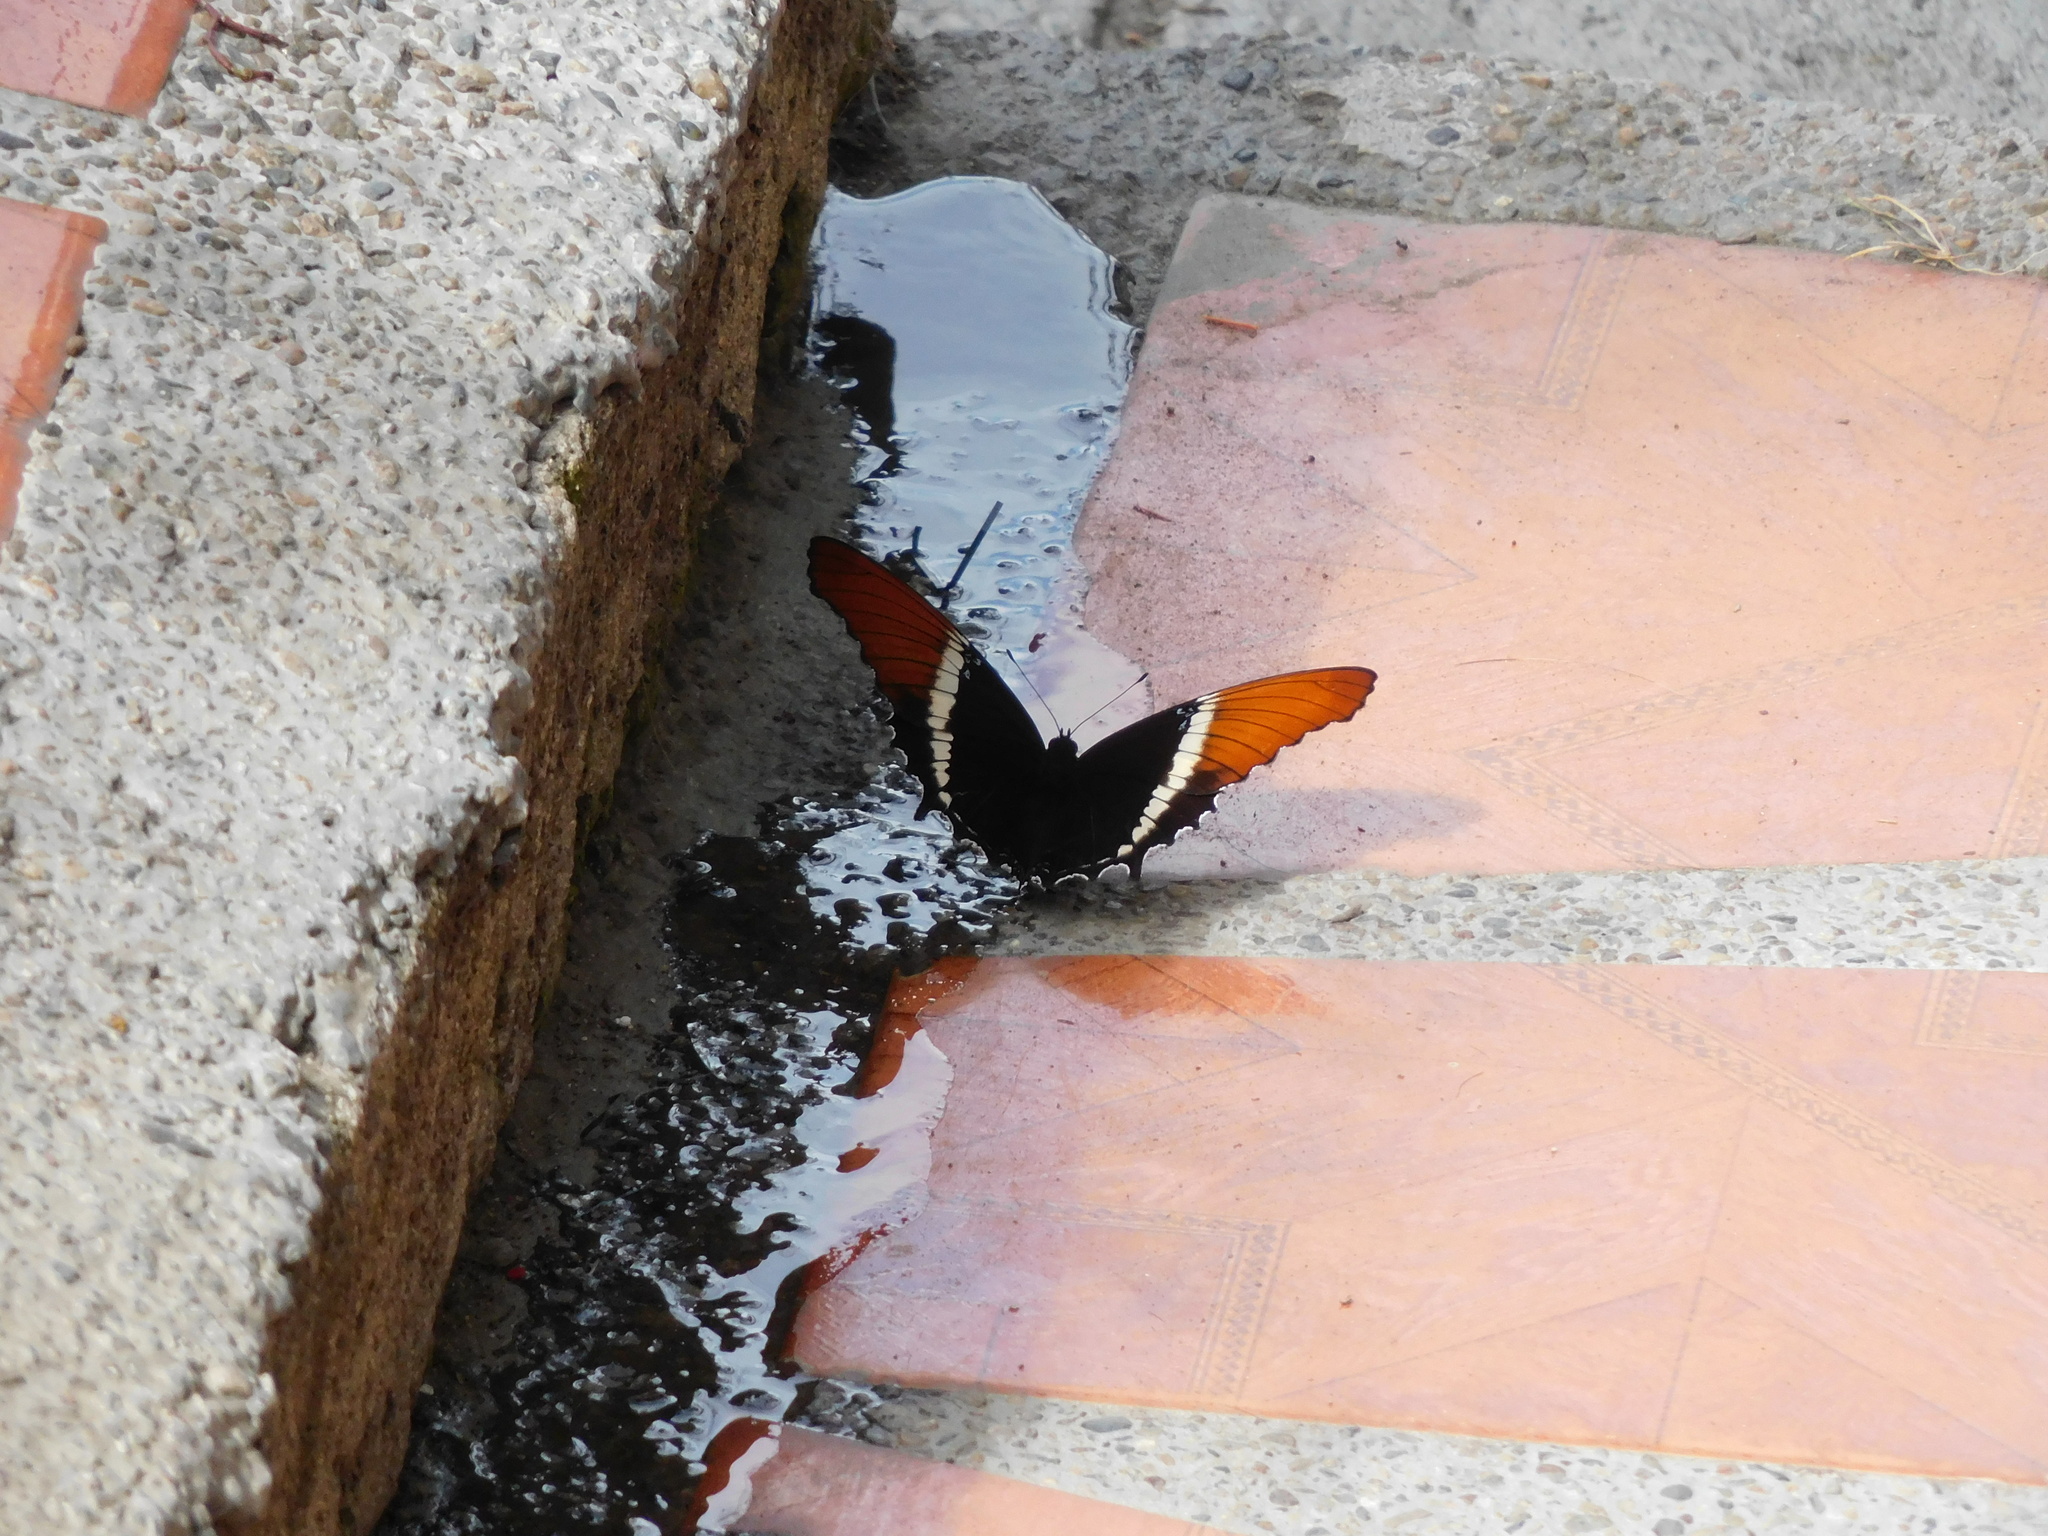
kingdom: Animalia
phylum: Arthropoda
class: Insecta
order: Lepidoptera
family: Nymphalidae
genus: Siproeta
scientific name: Siproeta epaphus
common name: Rusty-tipped page
